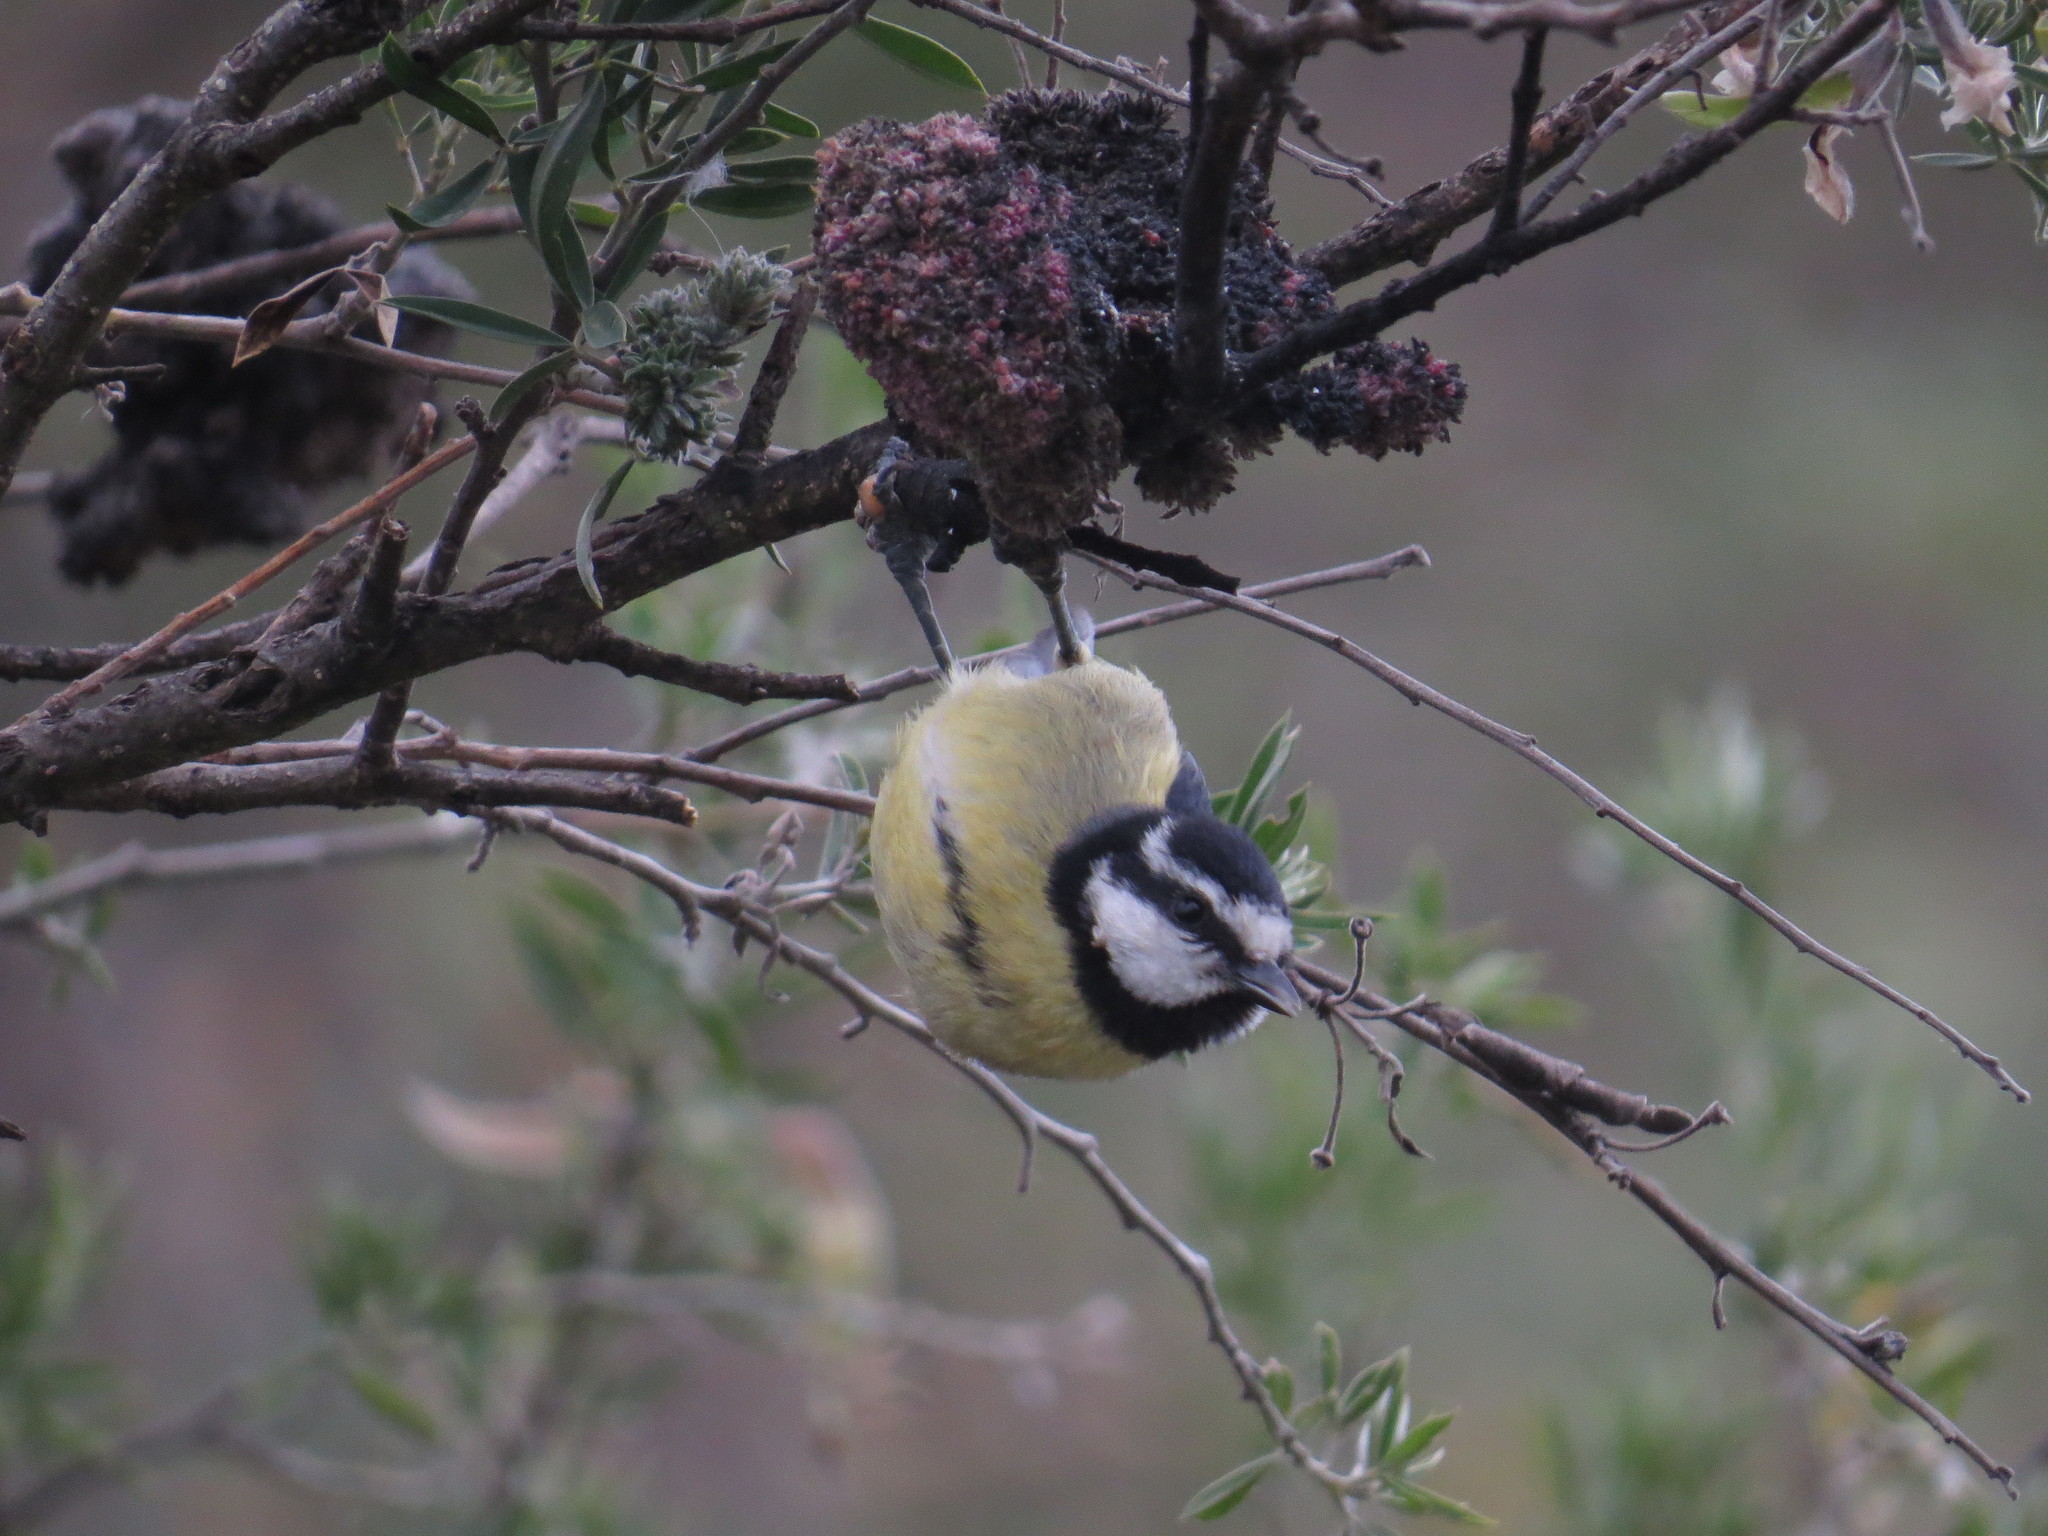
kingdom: Animalia
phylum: Chordata
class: Aves
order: Passeriformes
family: Paridae
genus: Cyanistes
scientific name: Cyanistes teneriffae
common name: African blue tit
